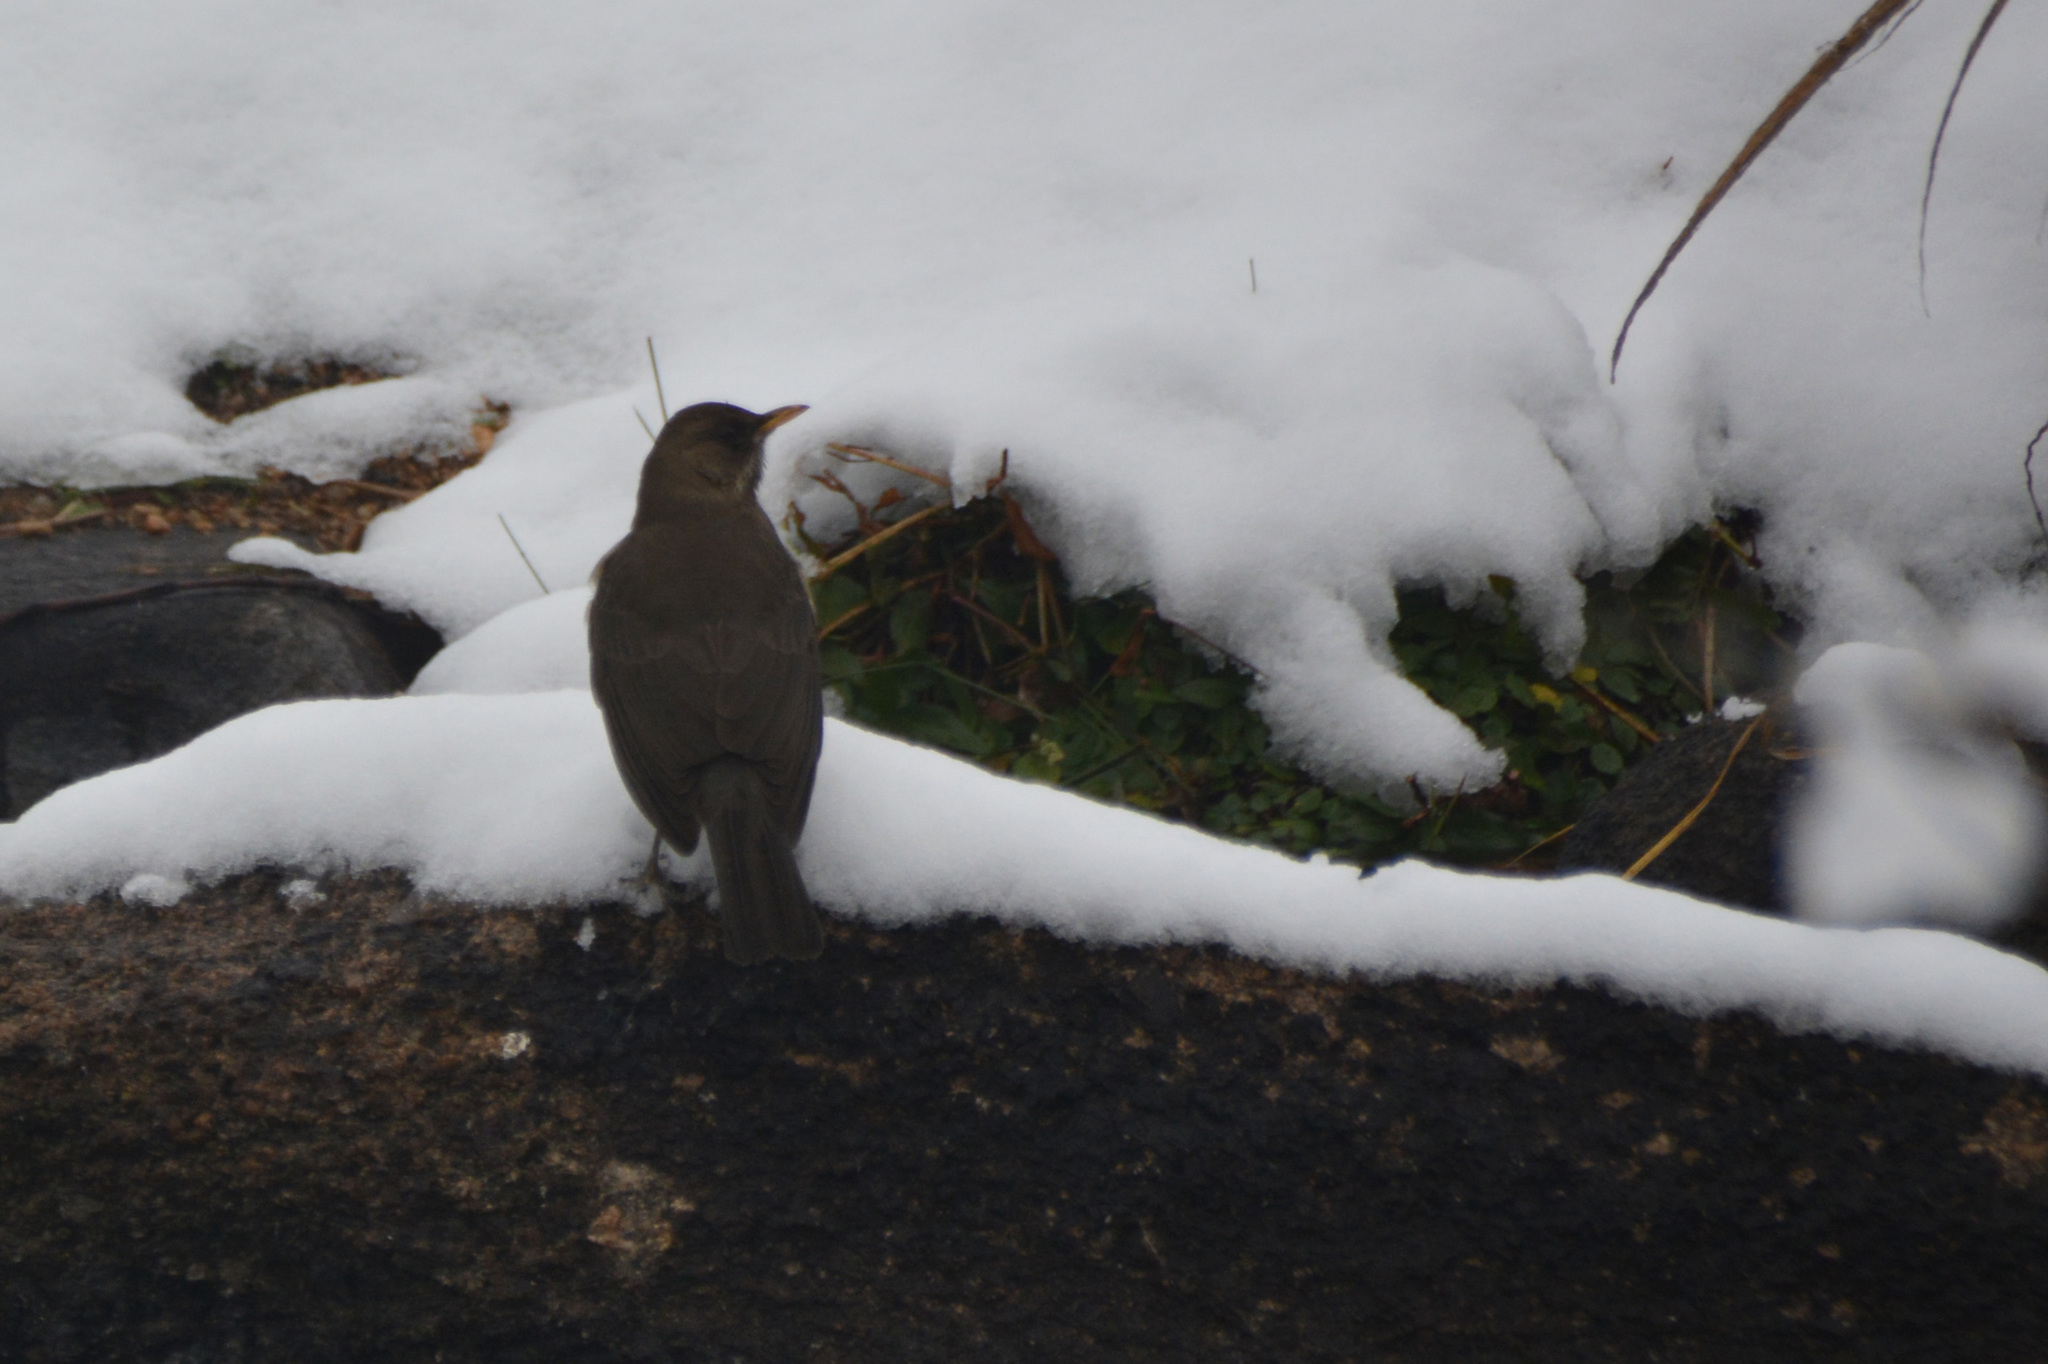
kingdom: Animalia
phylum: Chordata
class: Aves
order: Passeriformes
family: Turdidae
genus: Turdus
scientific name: Turdus amaurochalinus
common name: Creamy-bellied thrush
